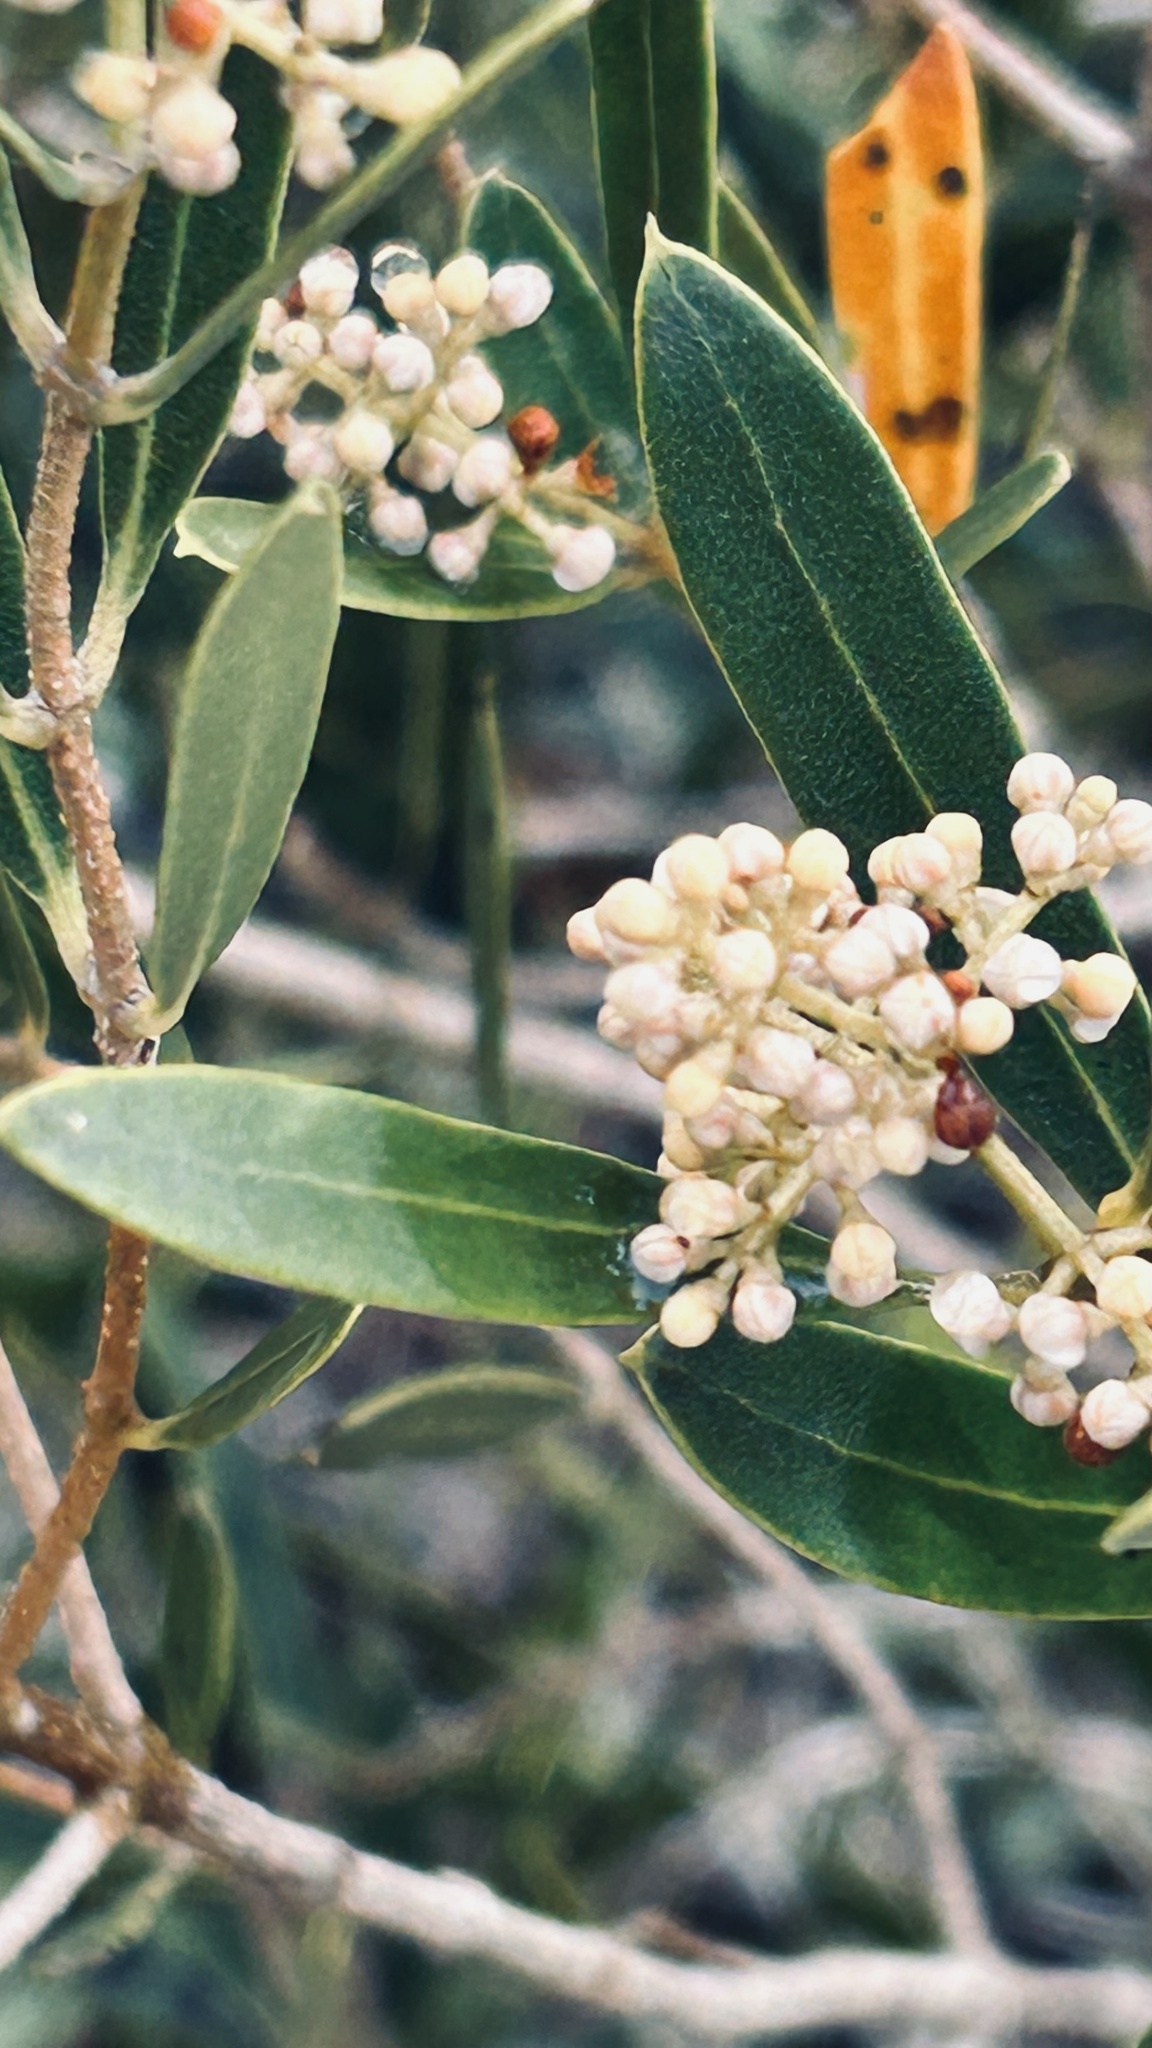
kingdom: Plantae
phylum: Tracheophyta
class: Magnoliopsida
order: Lamiales
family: Oleaceae
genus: Olea
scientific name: Olea exasperata
